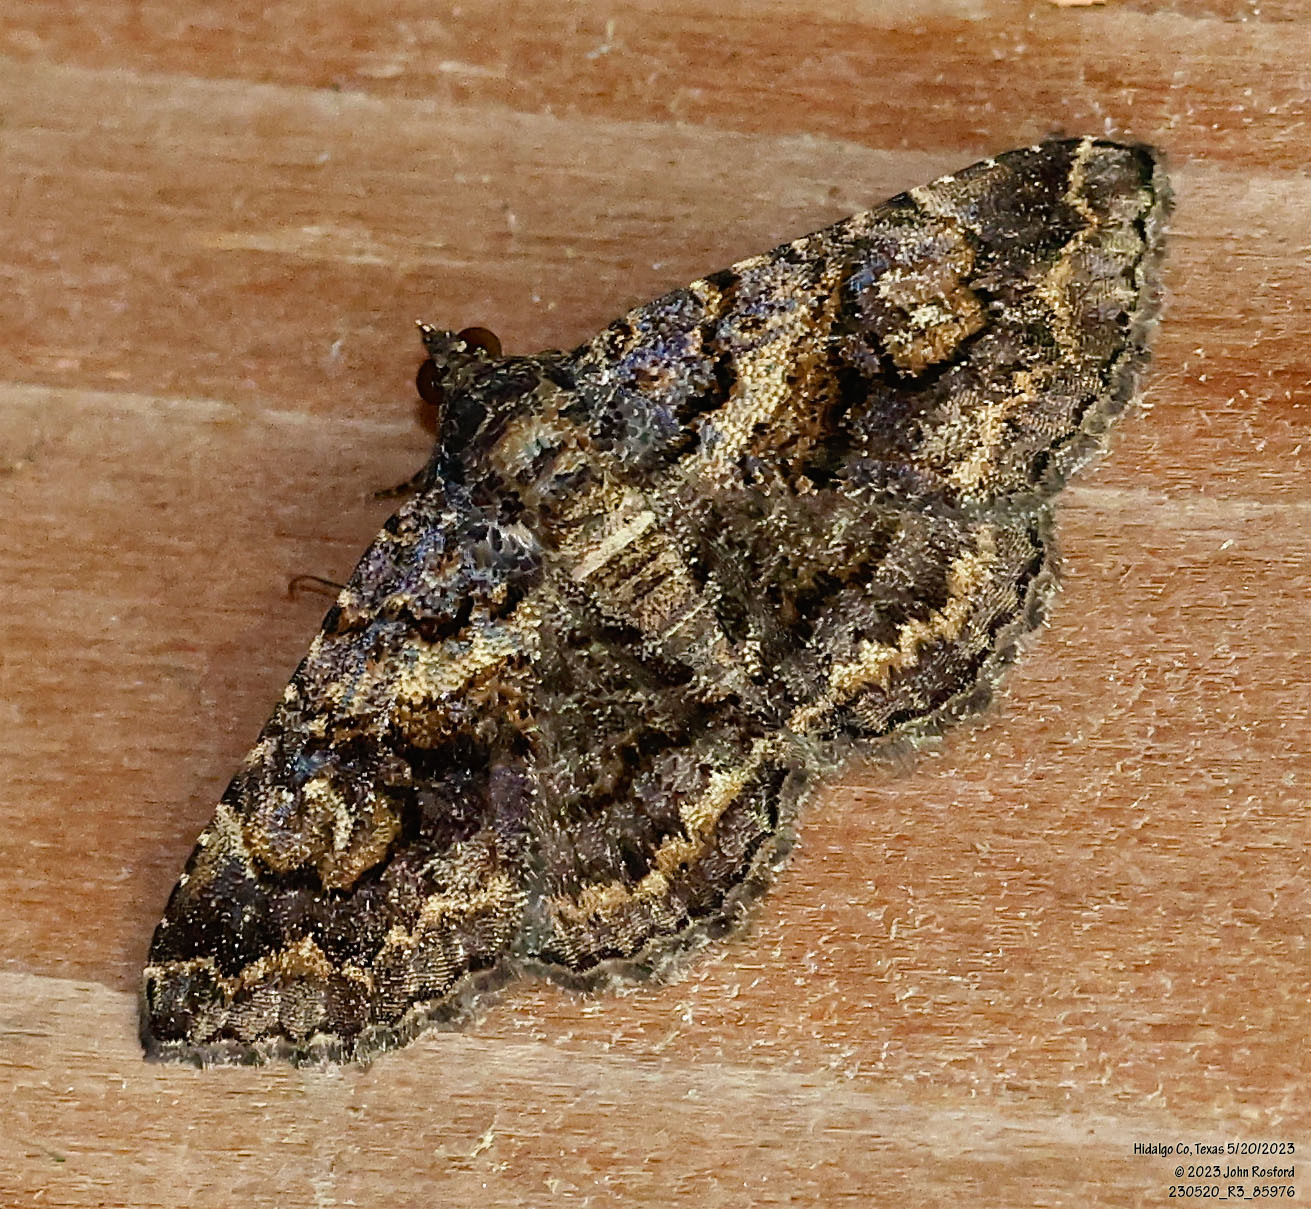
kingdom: Animalia
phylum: Arthropoda
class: Insecta
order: Lepidoptera
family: Erebidae
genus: Toxonprucha
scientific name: Toxonprucha excavata
